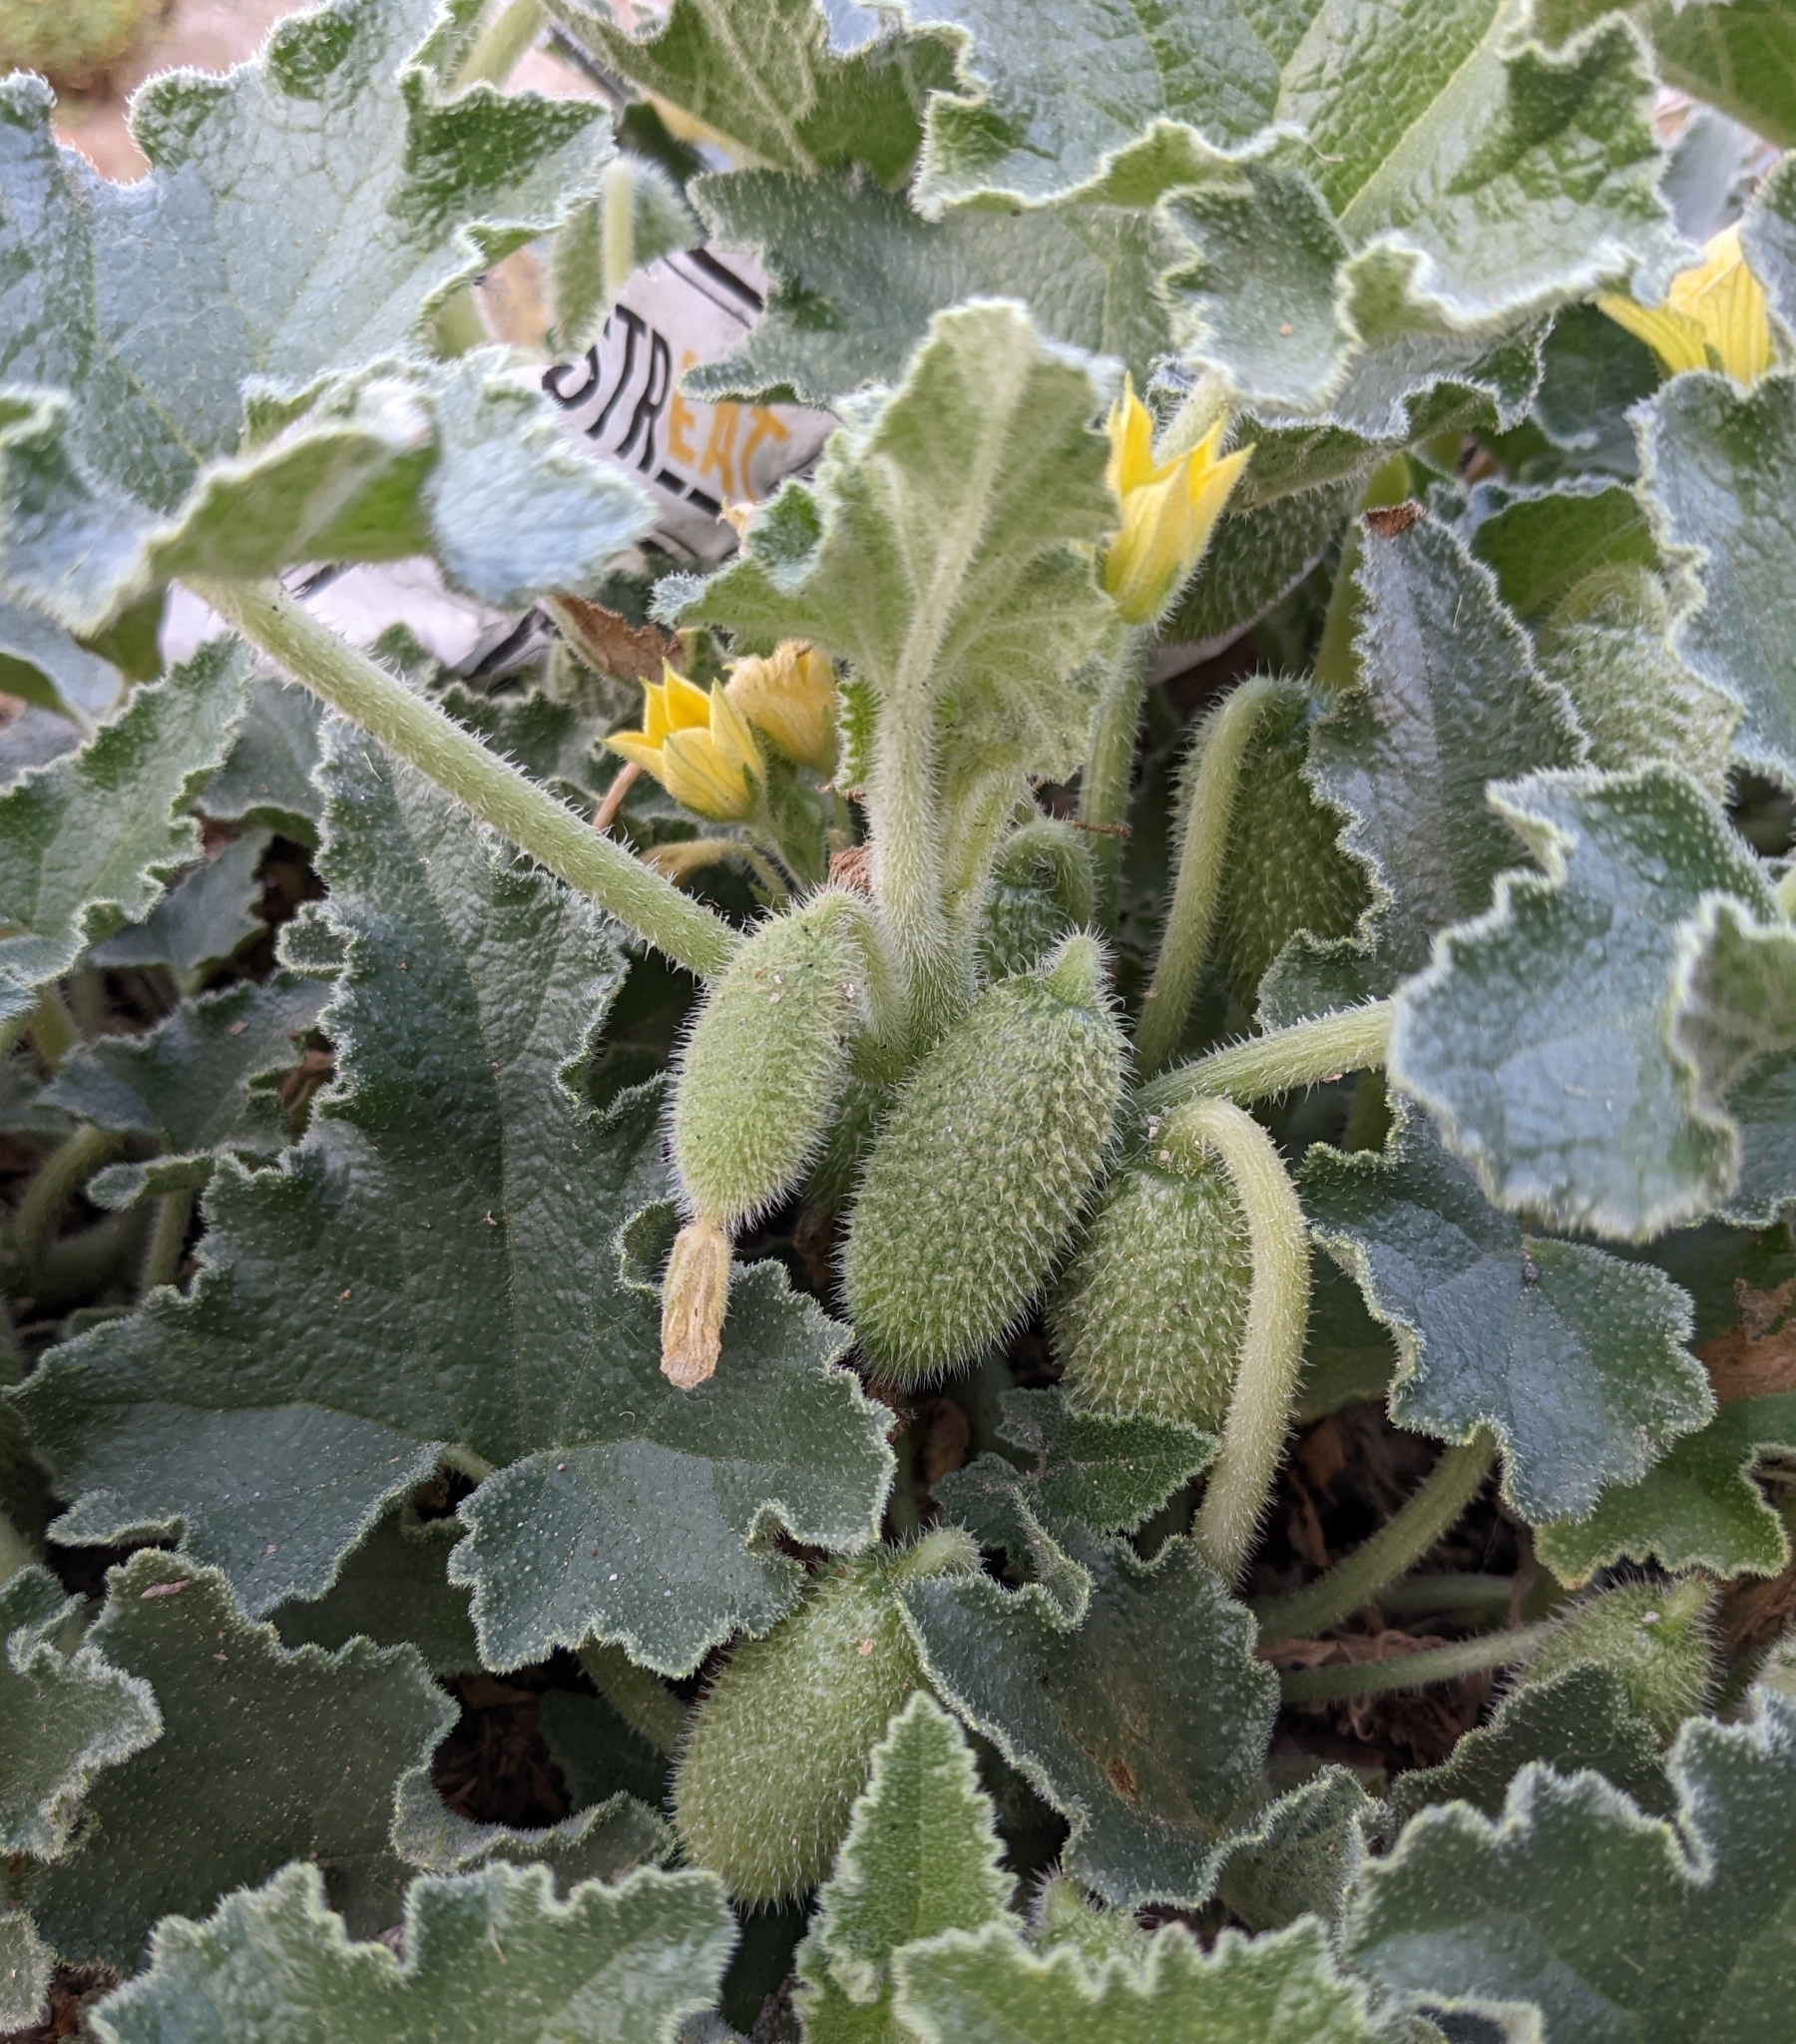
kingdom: Plantae
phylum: Tracheophyta
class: Magnoliopsida
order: Cucurbitales
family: Cucurbitaceae
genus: Ecballium
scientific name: Ecballium elaterium
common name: Squirting cucumber
